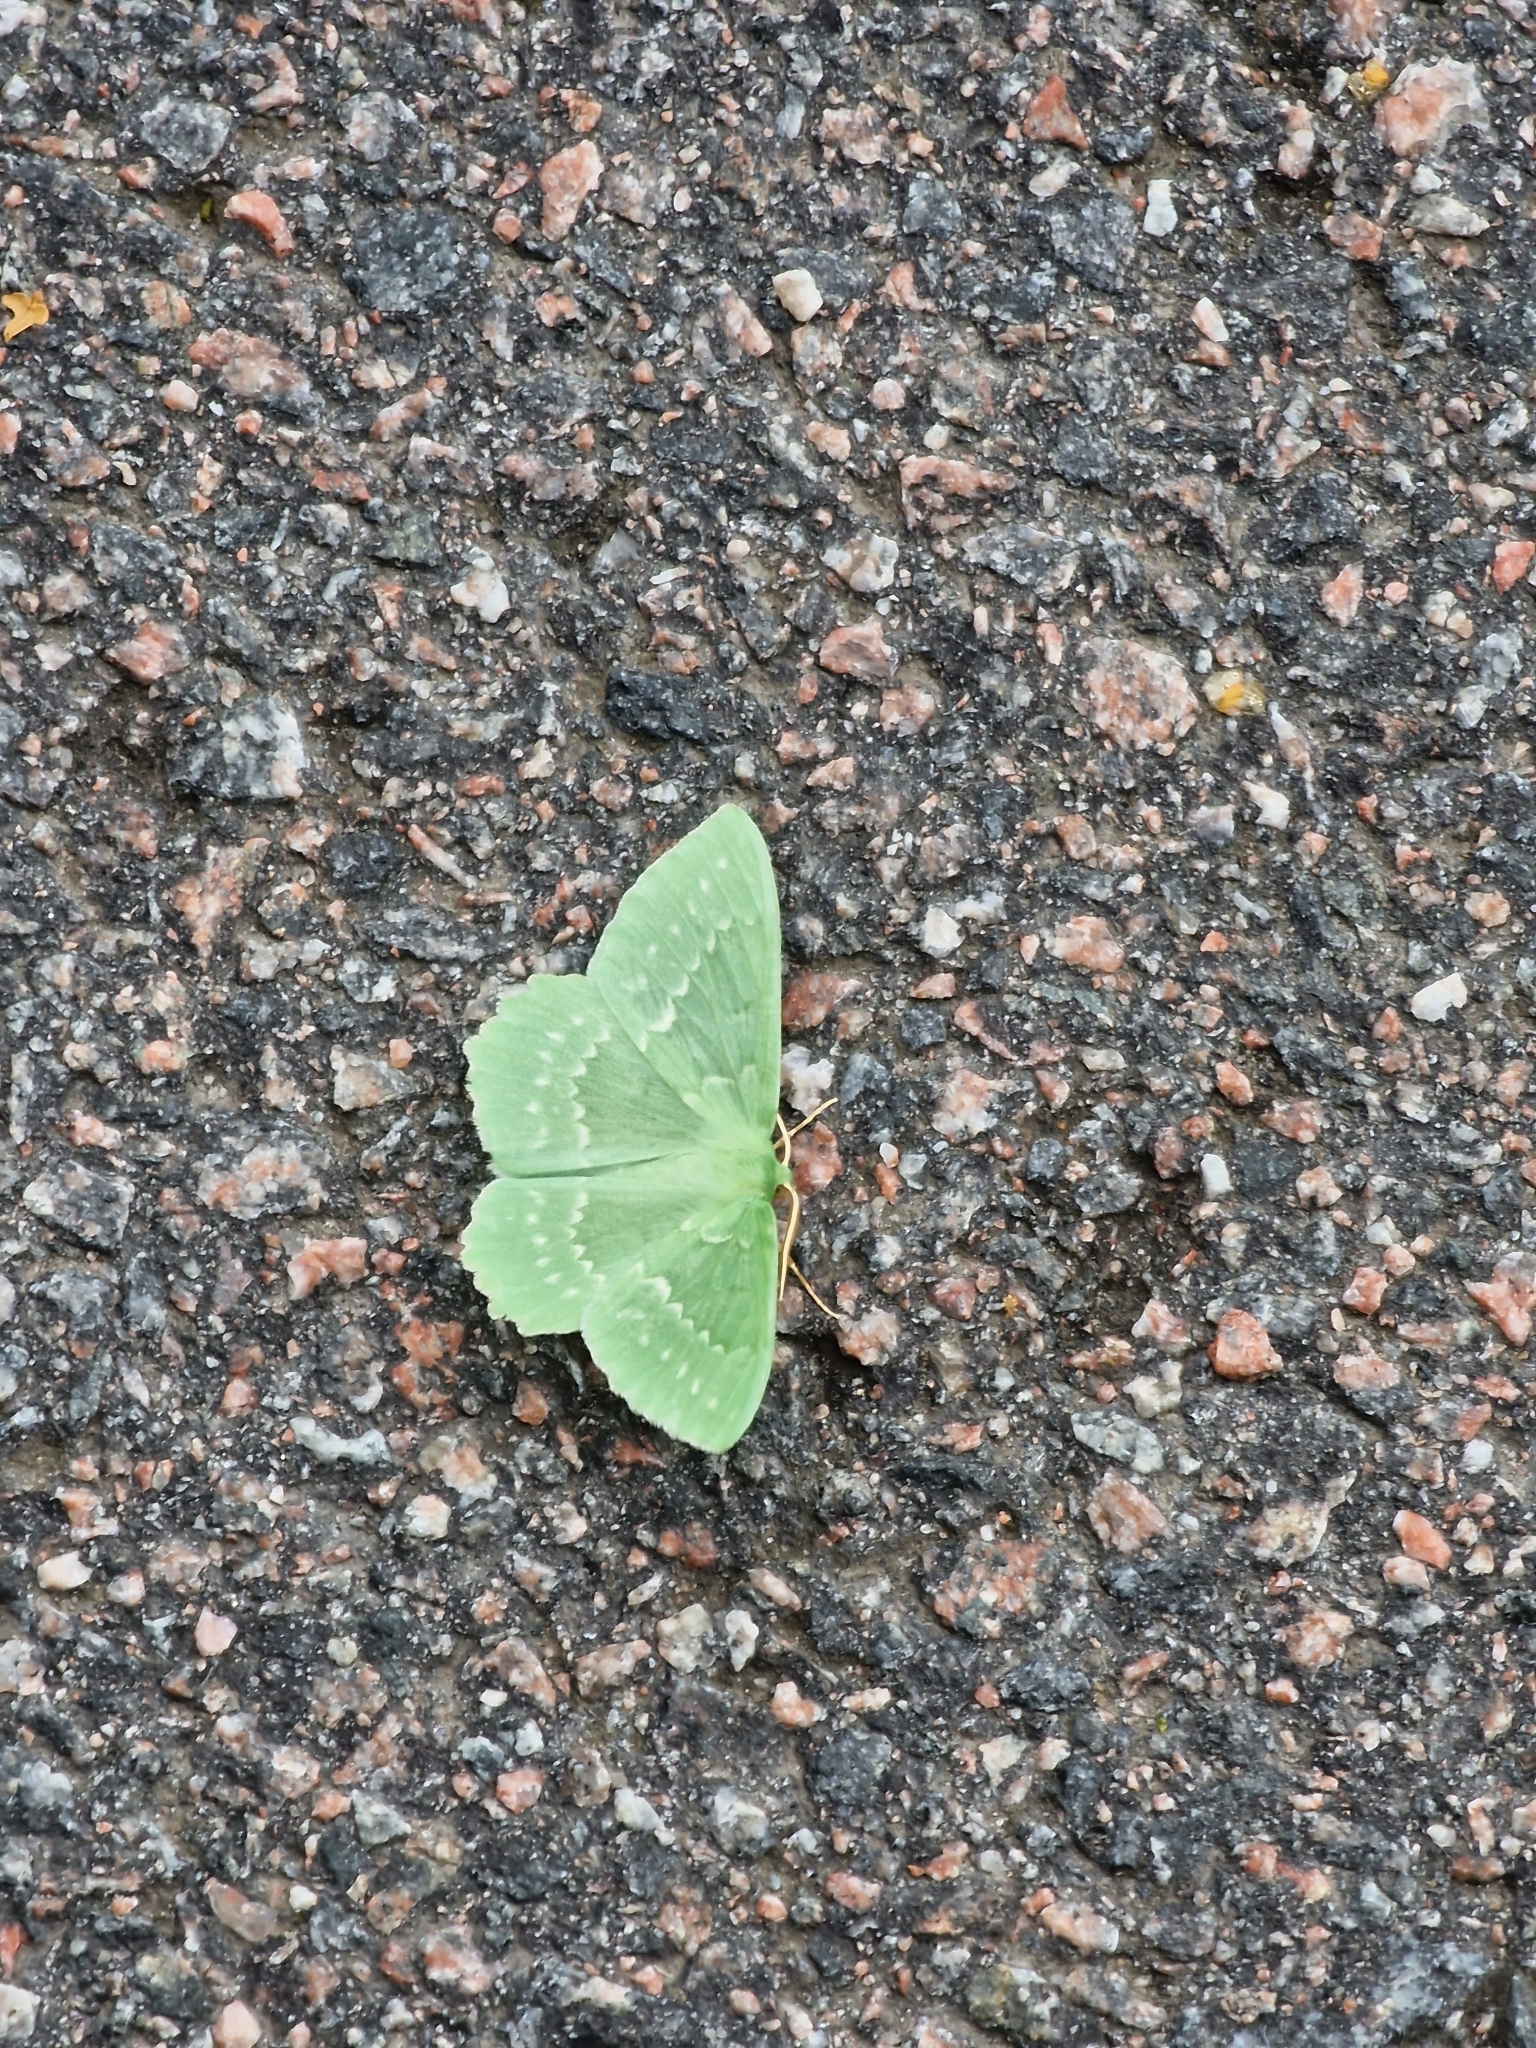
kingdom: Animalia
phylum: Arthropoda
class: Insecta
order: Lepidoptera
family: Geometridae
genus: Geometra
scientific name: Geometra papilionaria
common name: Large emerald
